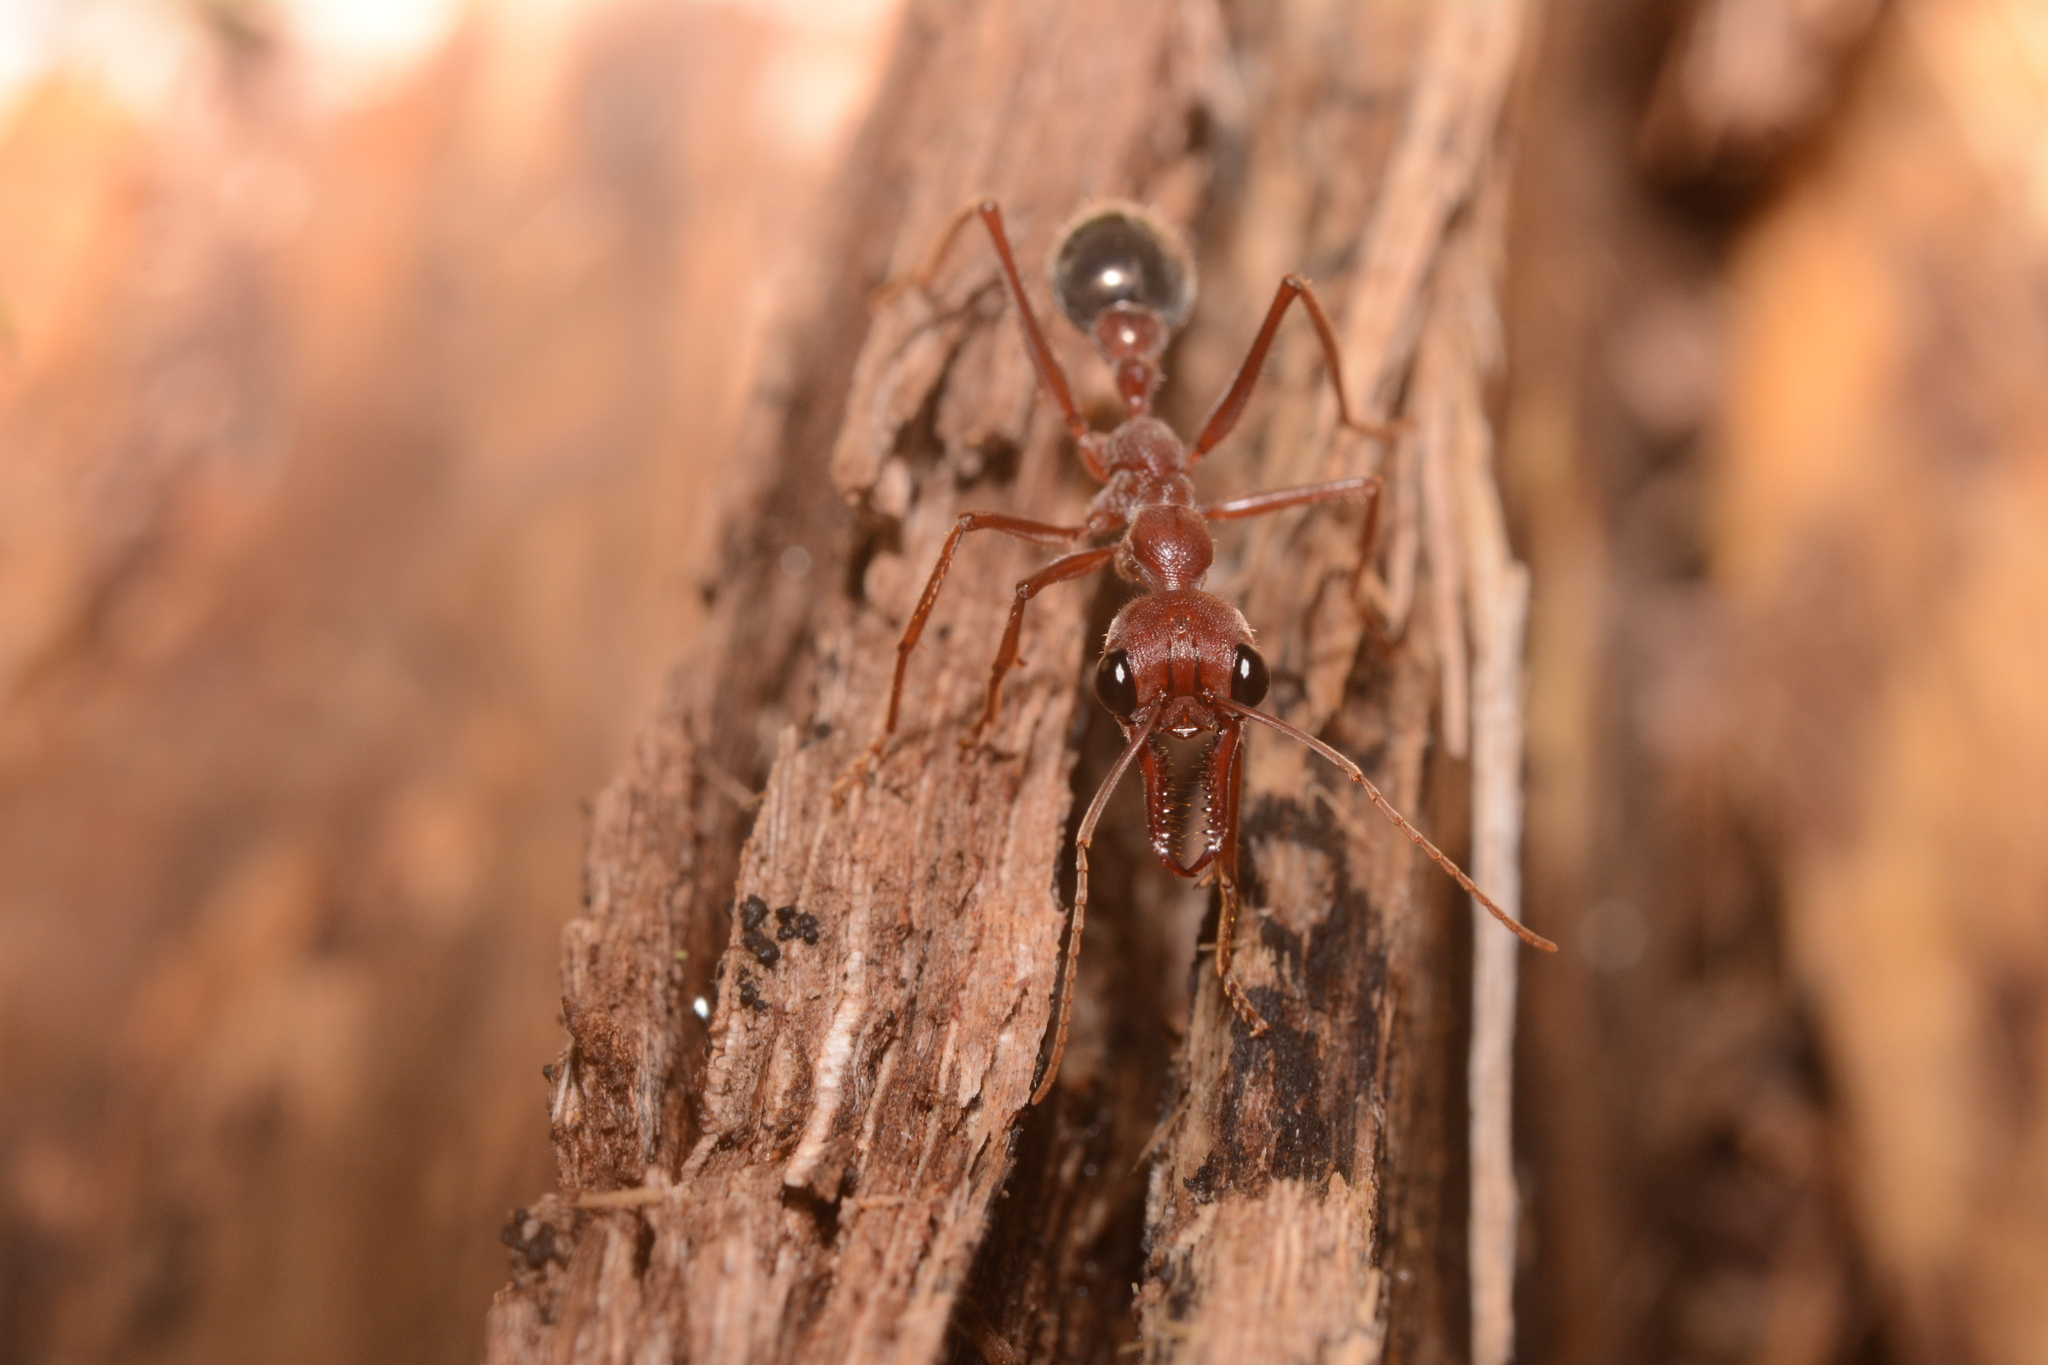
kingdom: Animalia
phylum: Arthropoda
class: Insecta
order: Hymenoptera
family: Formicidae
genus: Myrmecia
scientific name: Myrmecia brevinoda
